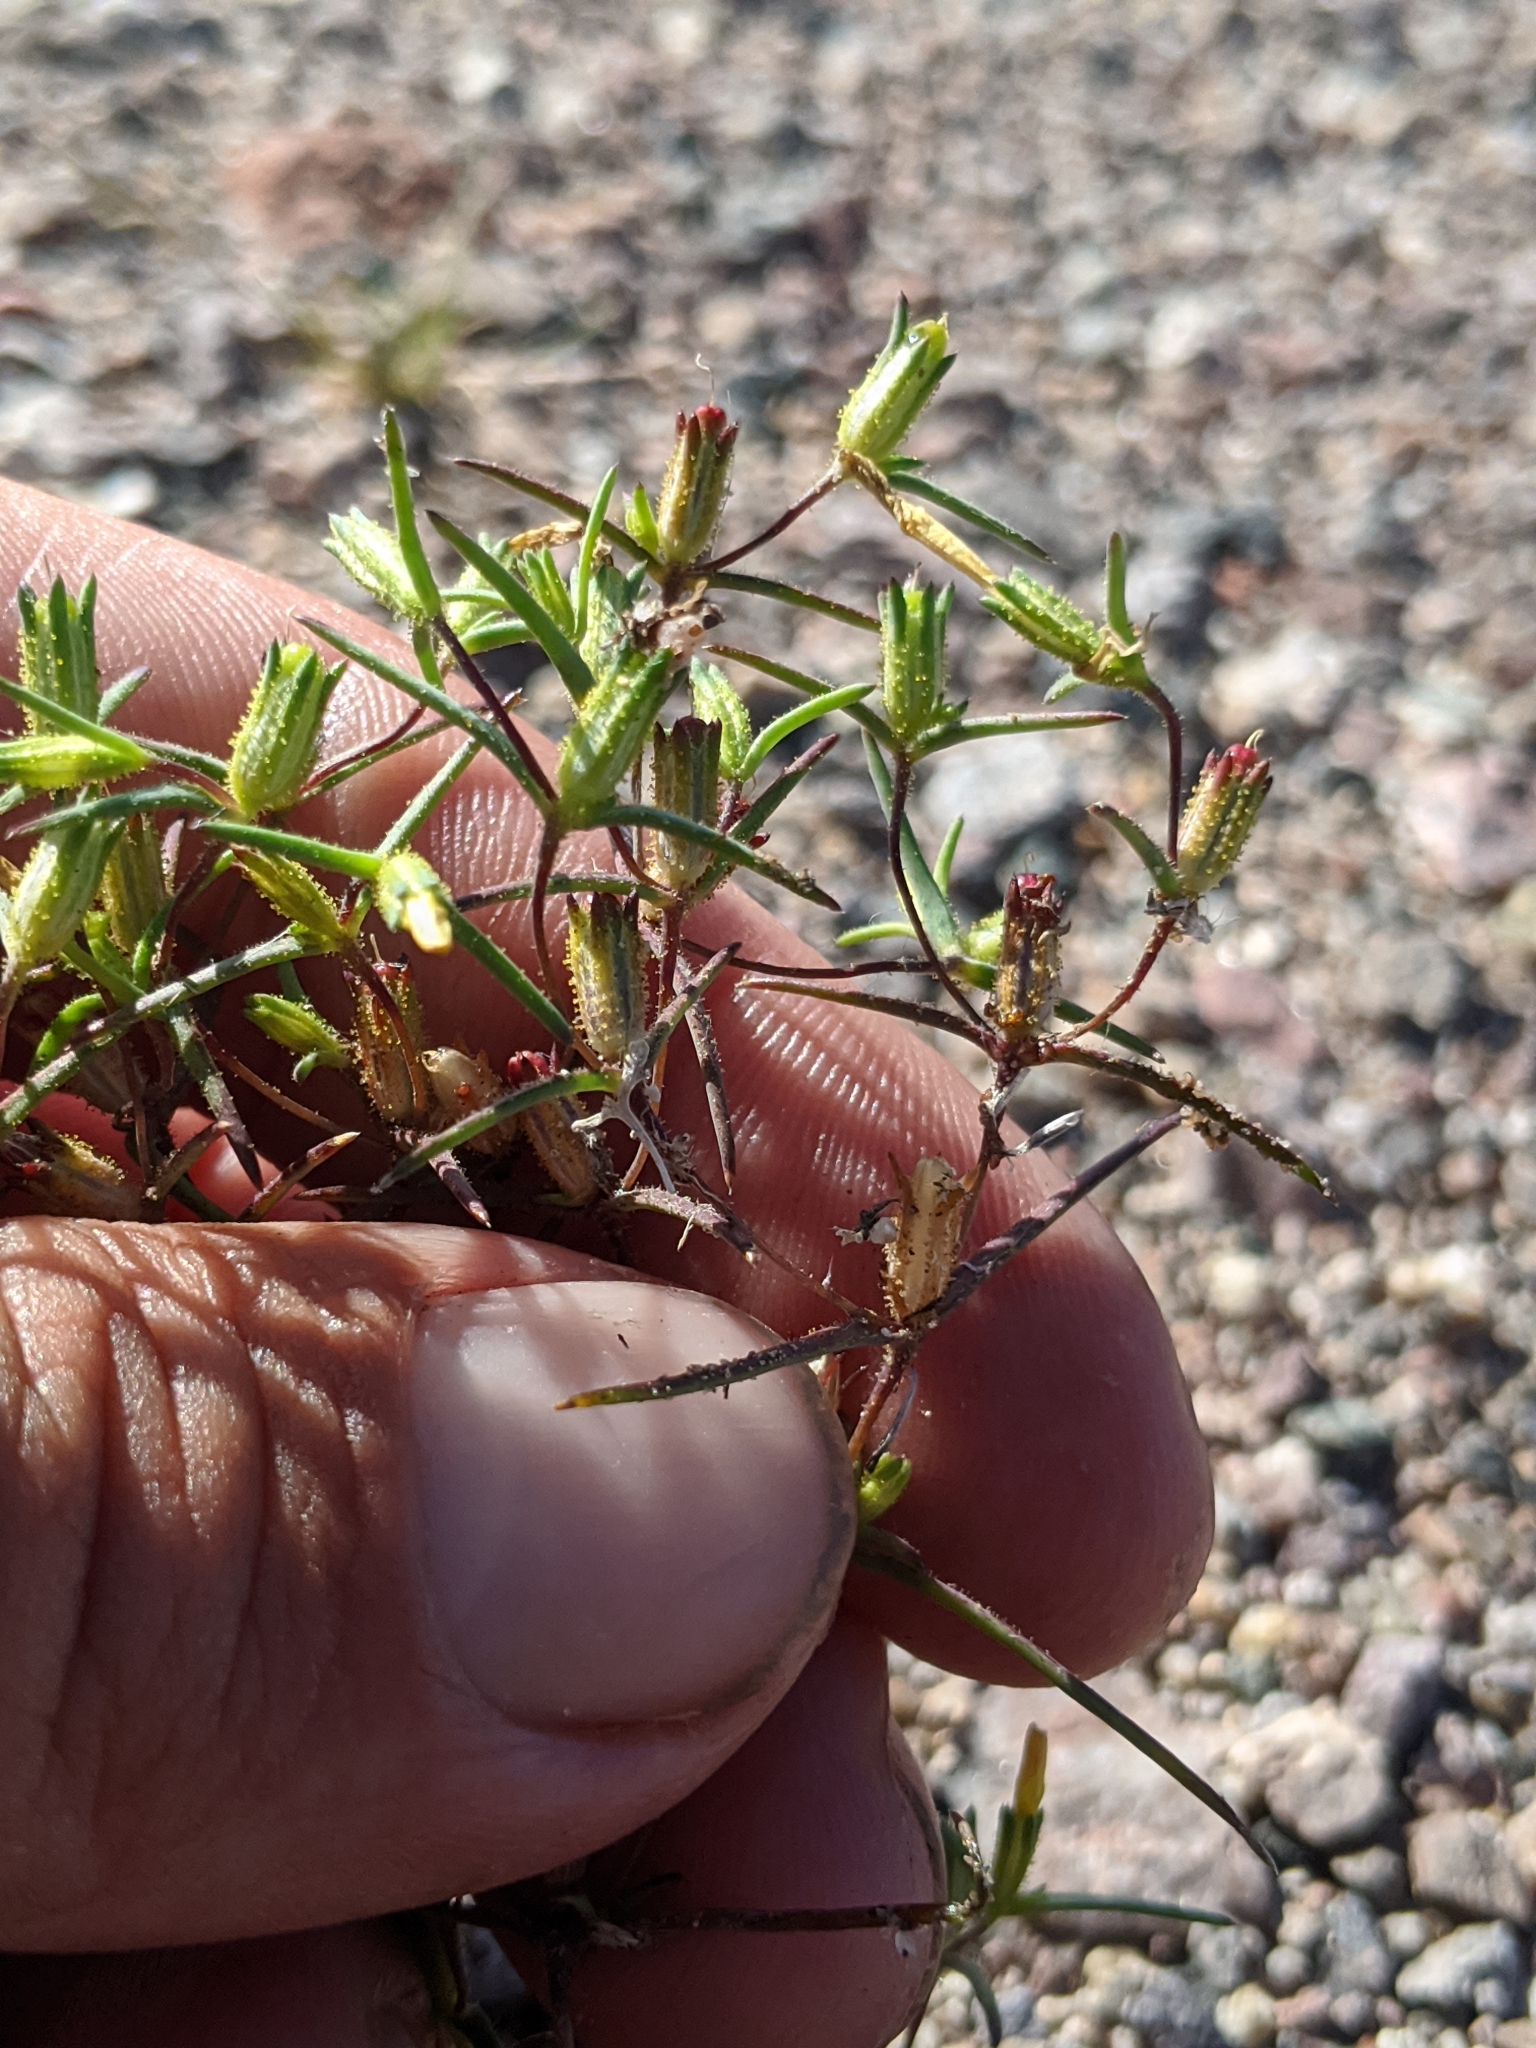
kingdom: Plantae
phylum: Tracheophyta
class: Magnoliopsida
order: Ericales
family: Polemoniaceae
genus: Linanthus
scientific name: Linanthus jonesii
